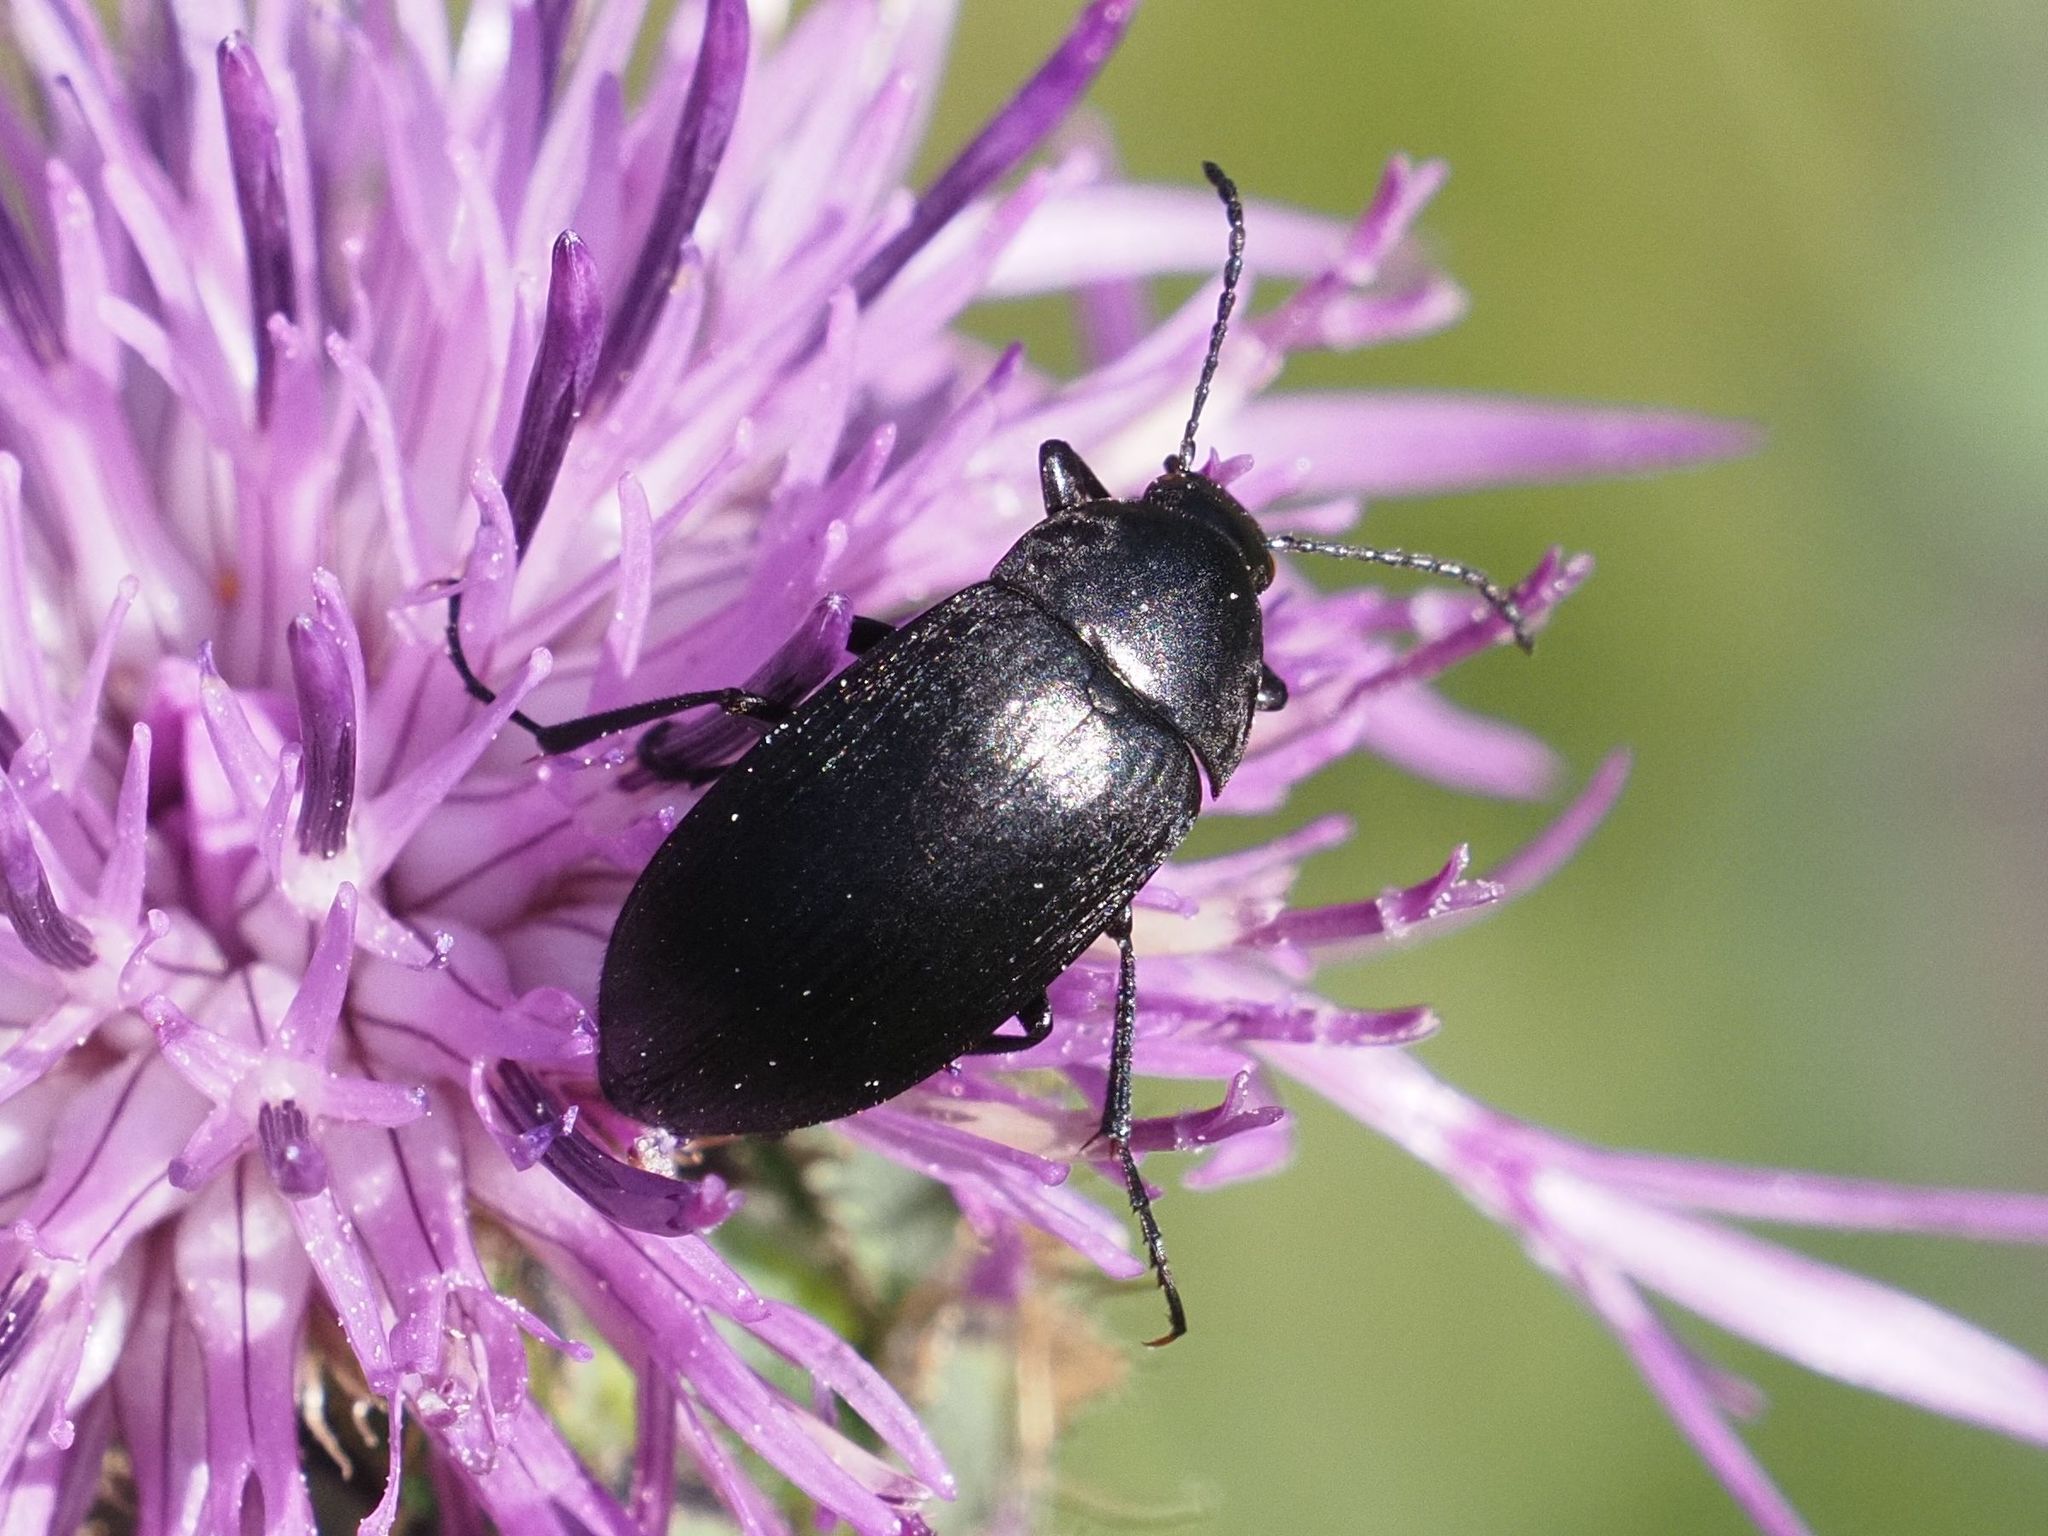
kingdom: Animalia
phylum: Arthropoda
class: Insecta
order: Coleoptera
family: Tenebrionidae
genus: Podonta
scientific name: Podonta nigrita
